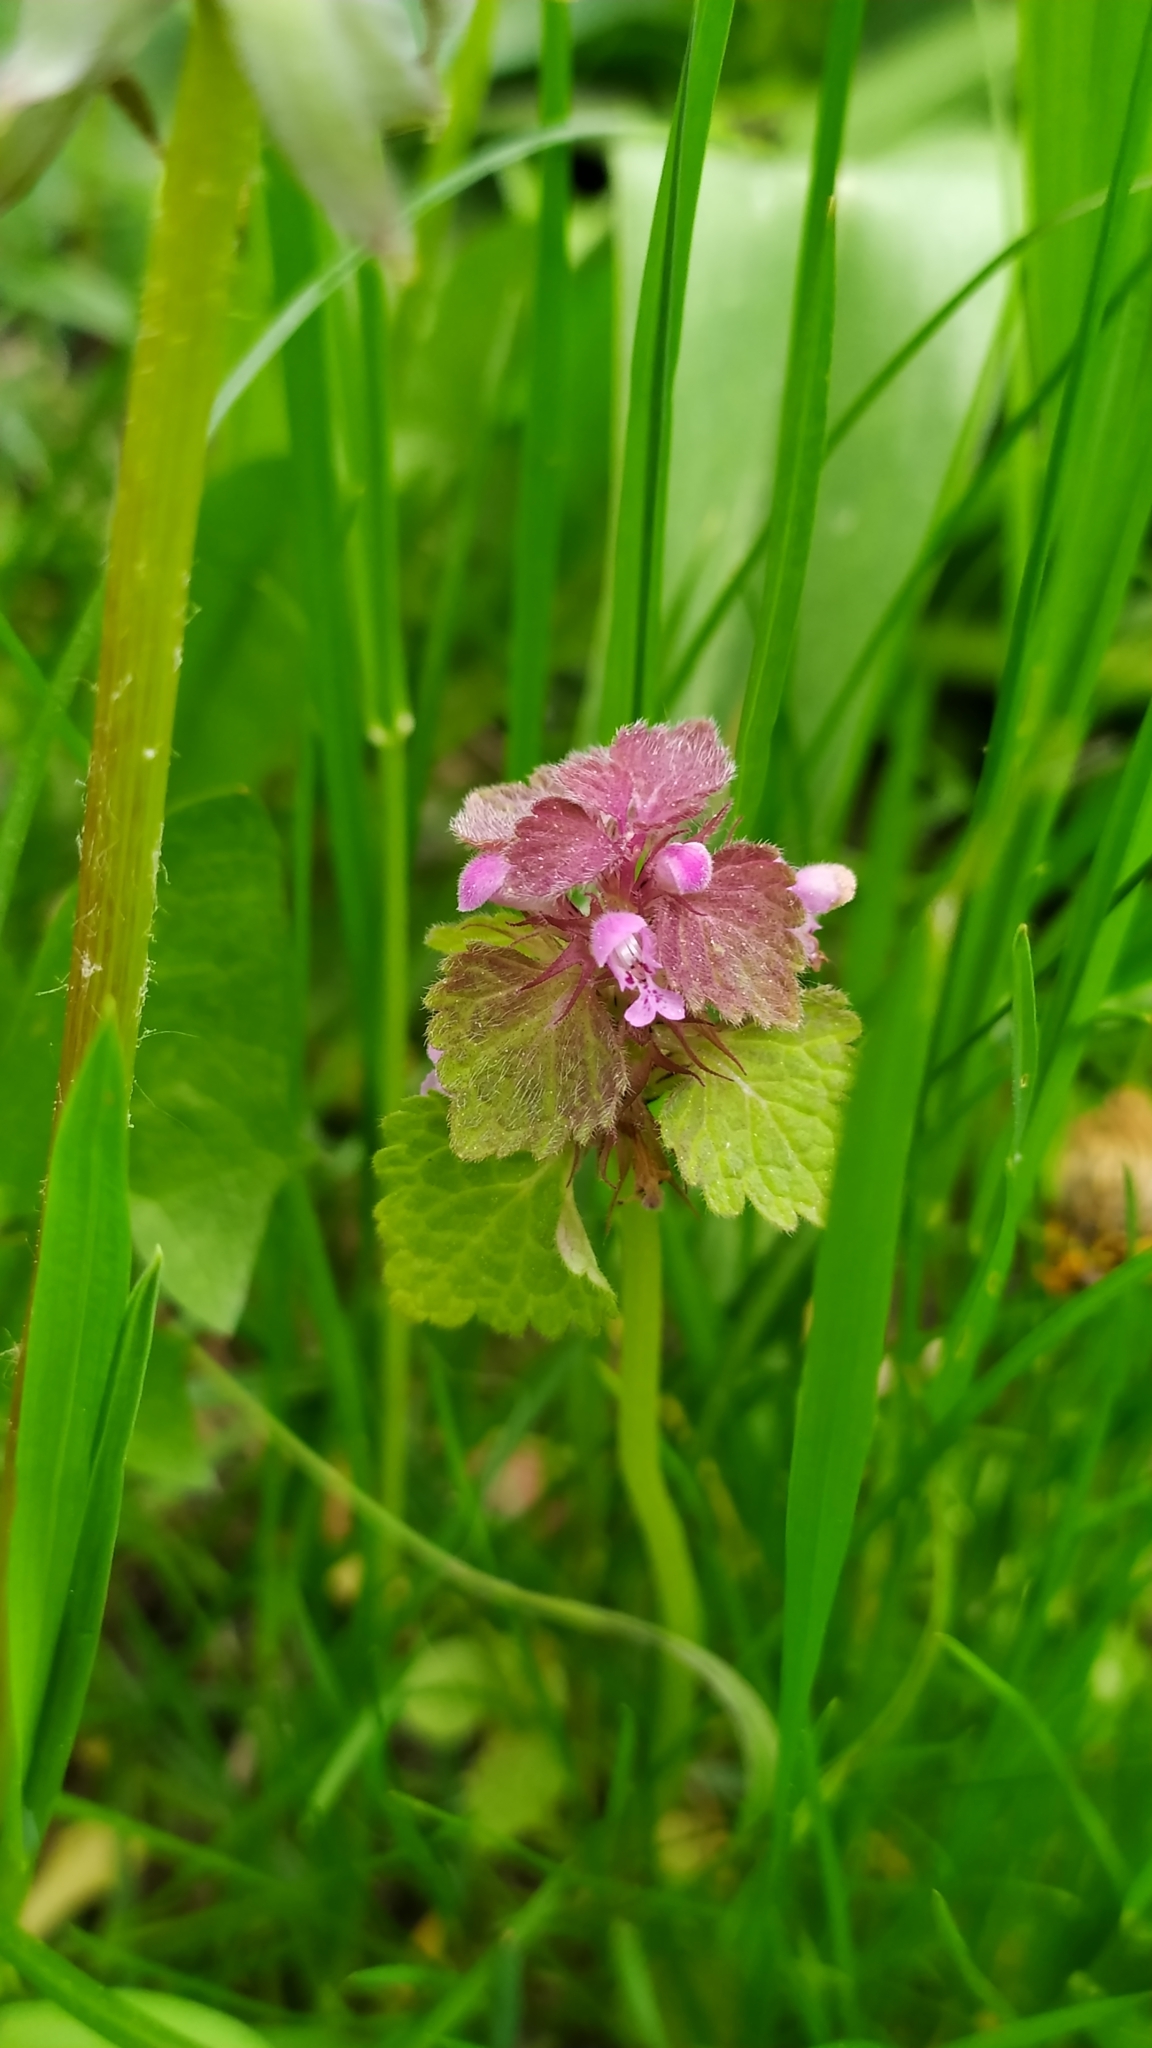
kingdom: Plantae
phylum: Tracheophyta
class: Magnoliopsida
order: Lamiales
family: Lamiaceae
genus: Lamium
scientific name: Lamium purpureum
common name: Red dead-nettle
